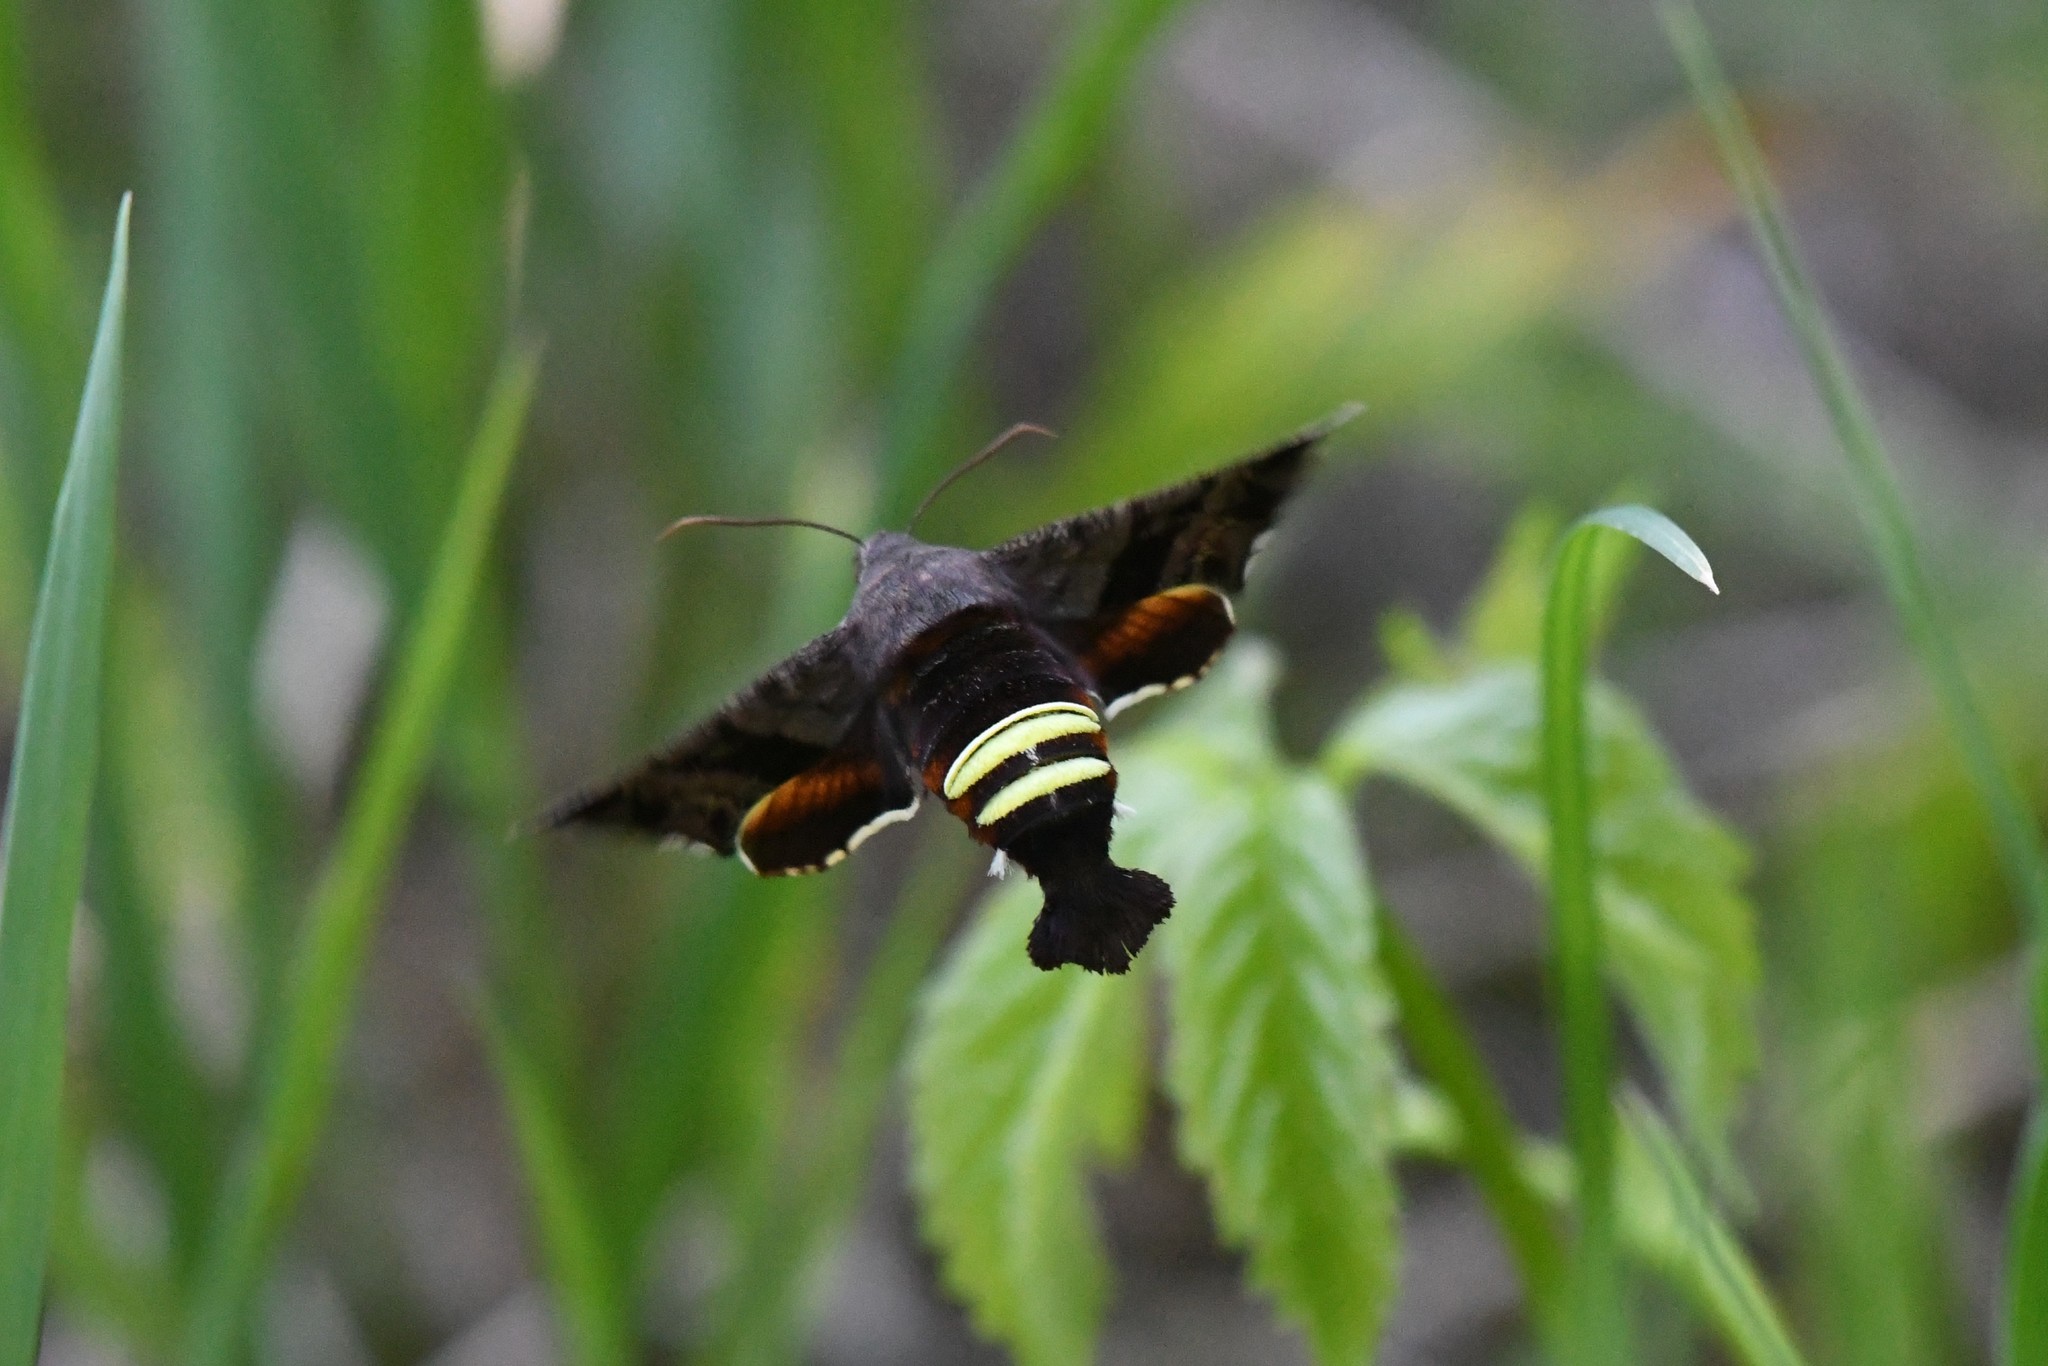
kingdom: Animalia
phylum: Arthropoda
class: Insecta
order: Lepidoptera
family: Sphingidae
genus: Amphion
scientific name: Amphion floridensis
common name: Nessus sphinx
